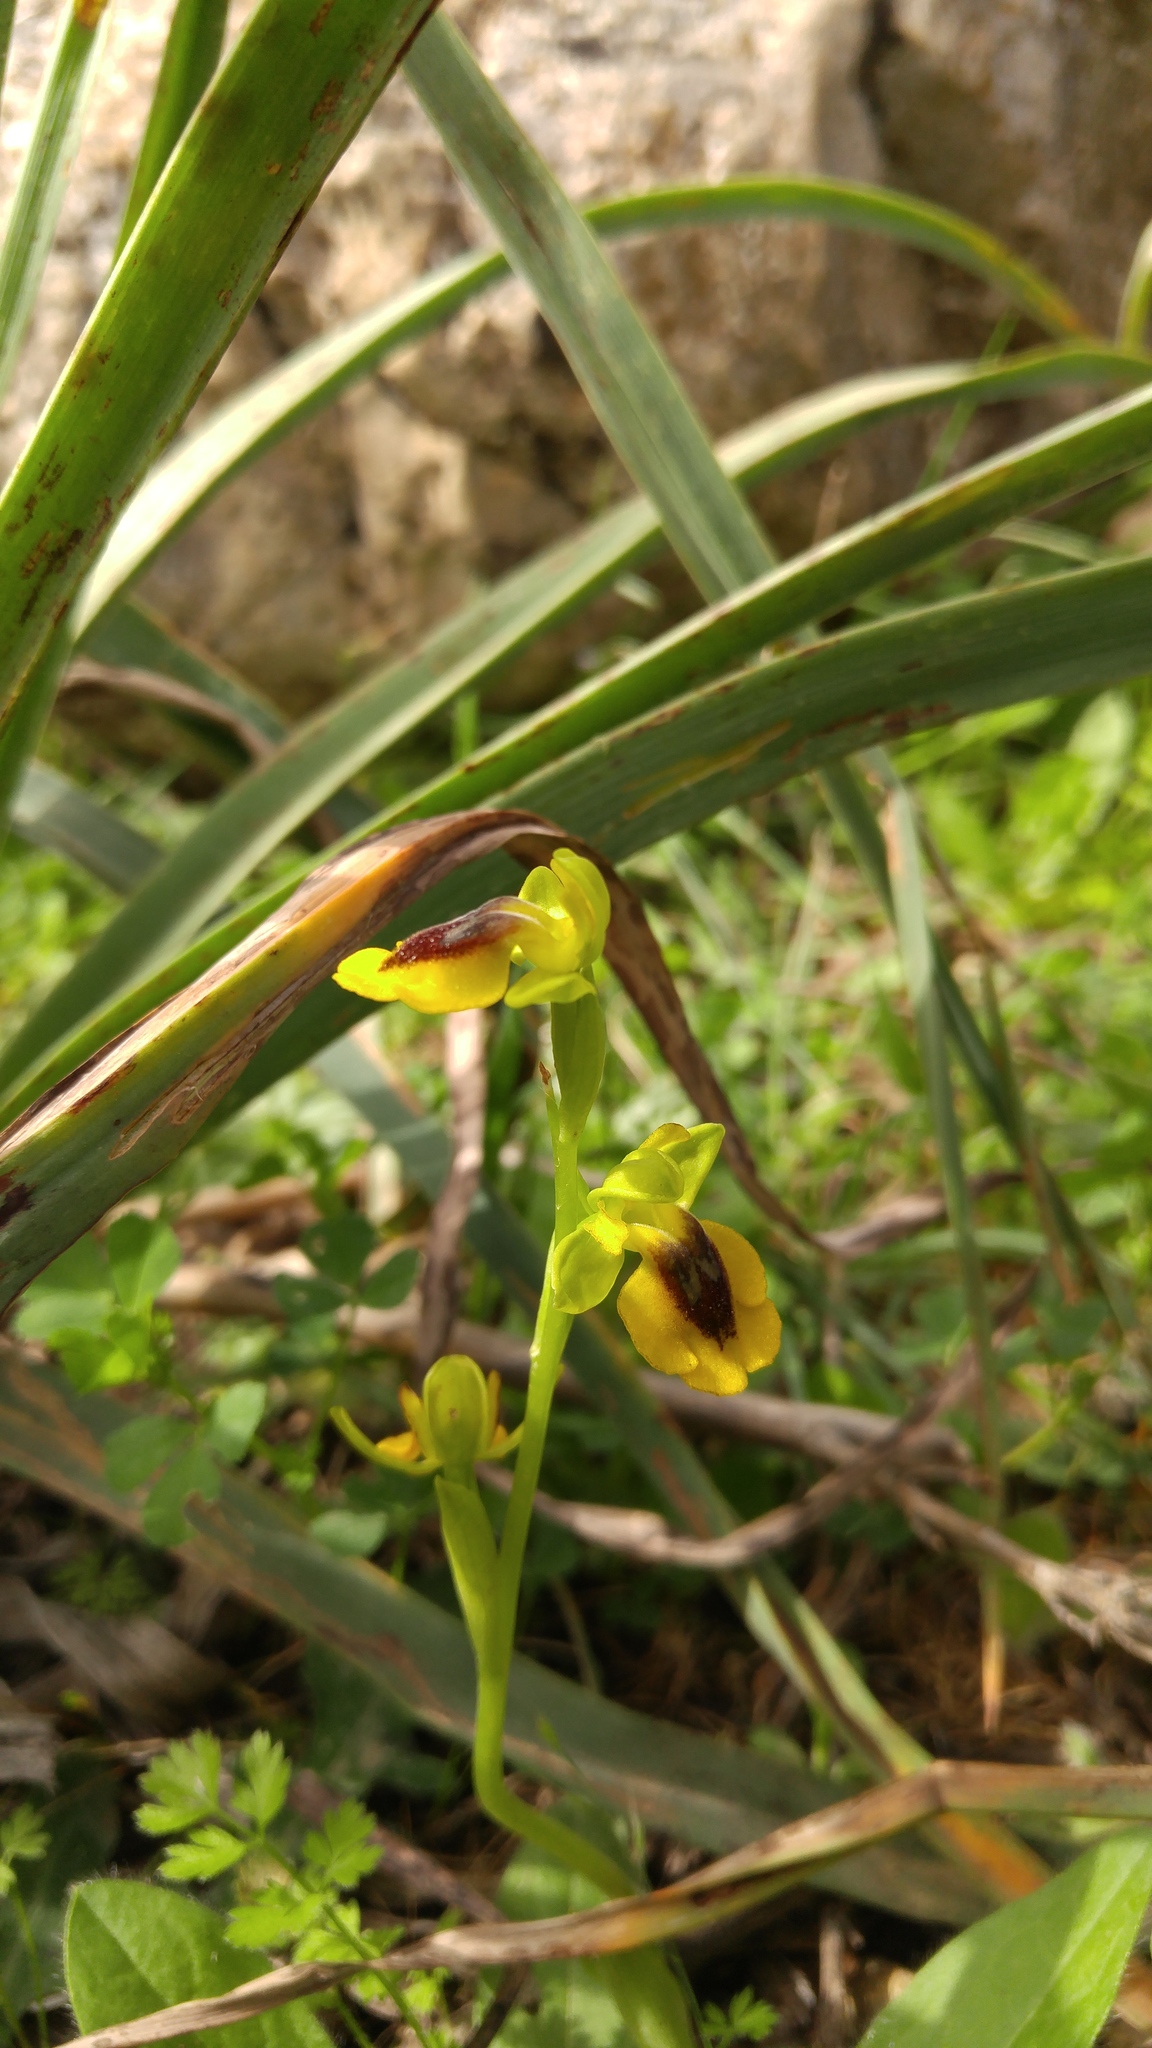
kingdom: Plantae
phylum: Tracheophyta
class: Liliopsida
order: Asparagales
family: Orchidaceae
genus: Ophrys
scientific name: Ophrys lutea
